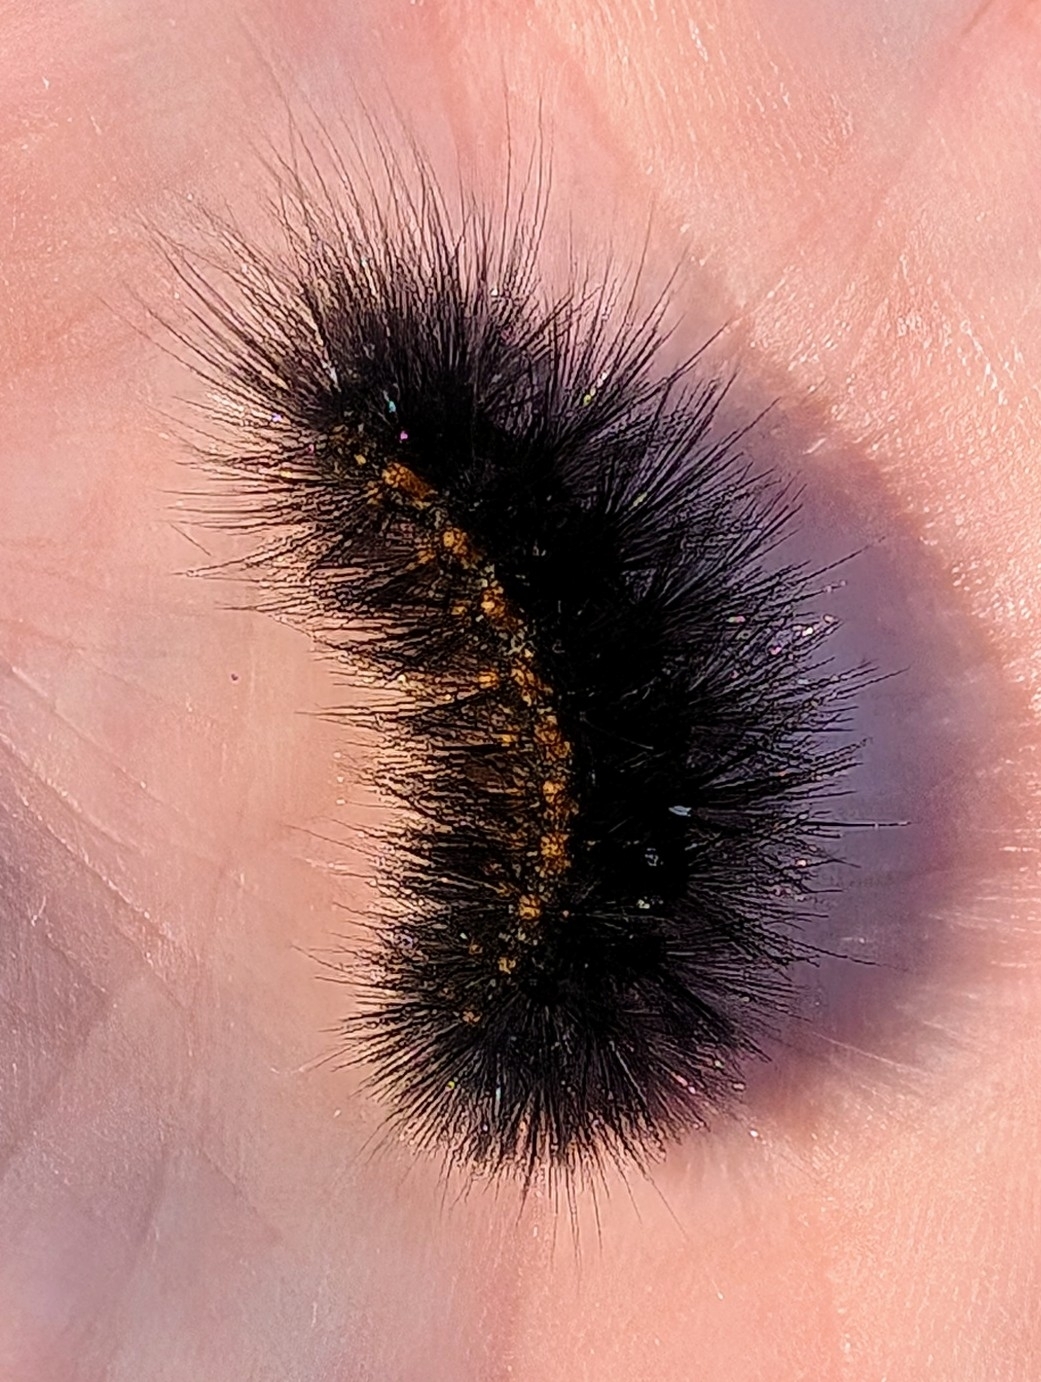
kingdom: Animalia
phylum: Arthropoda
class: Insecta
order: Lepidoptera
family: Erebidae
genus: Estigmene
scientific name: Estigmene acrea
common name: Salt marsh moth
